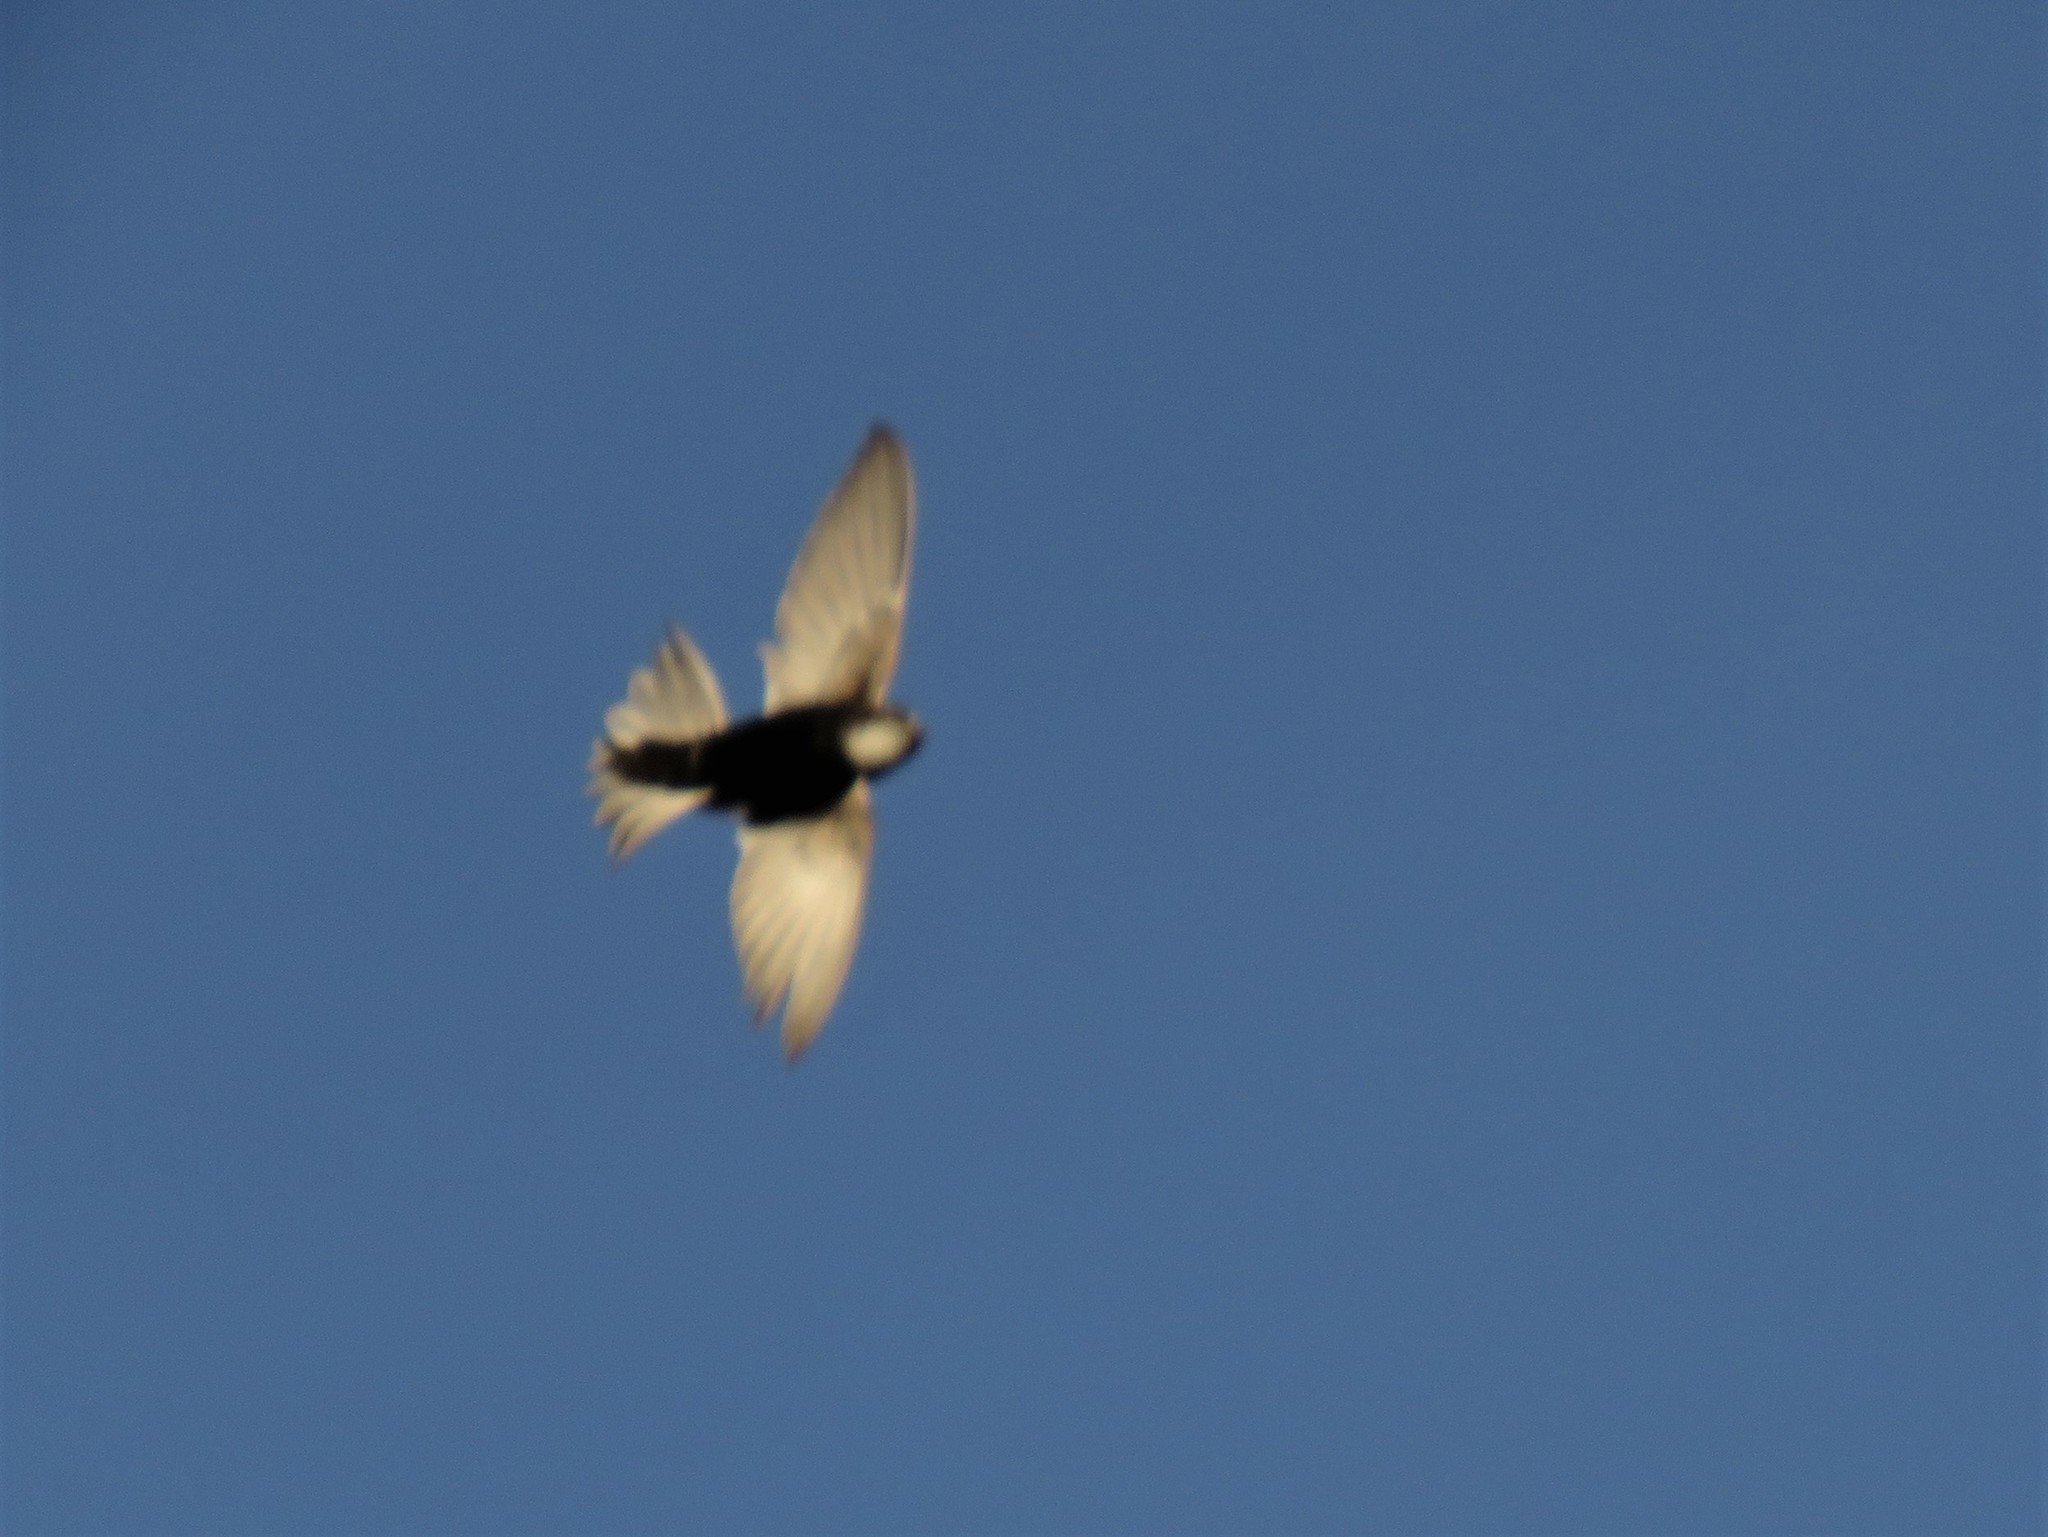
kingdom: Animalia
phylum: Chordata
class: Aves
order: Apodiformes
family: Apodidae
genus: Apus
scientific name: Apus affinis
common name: Little swift
